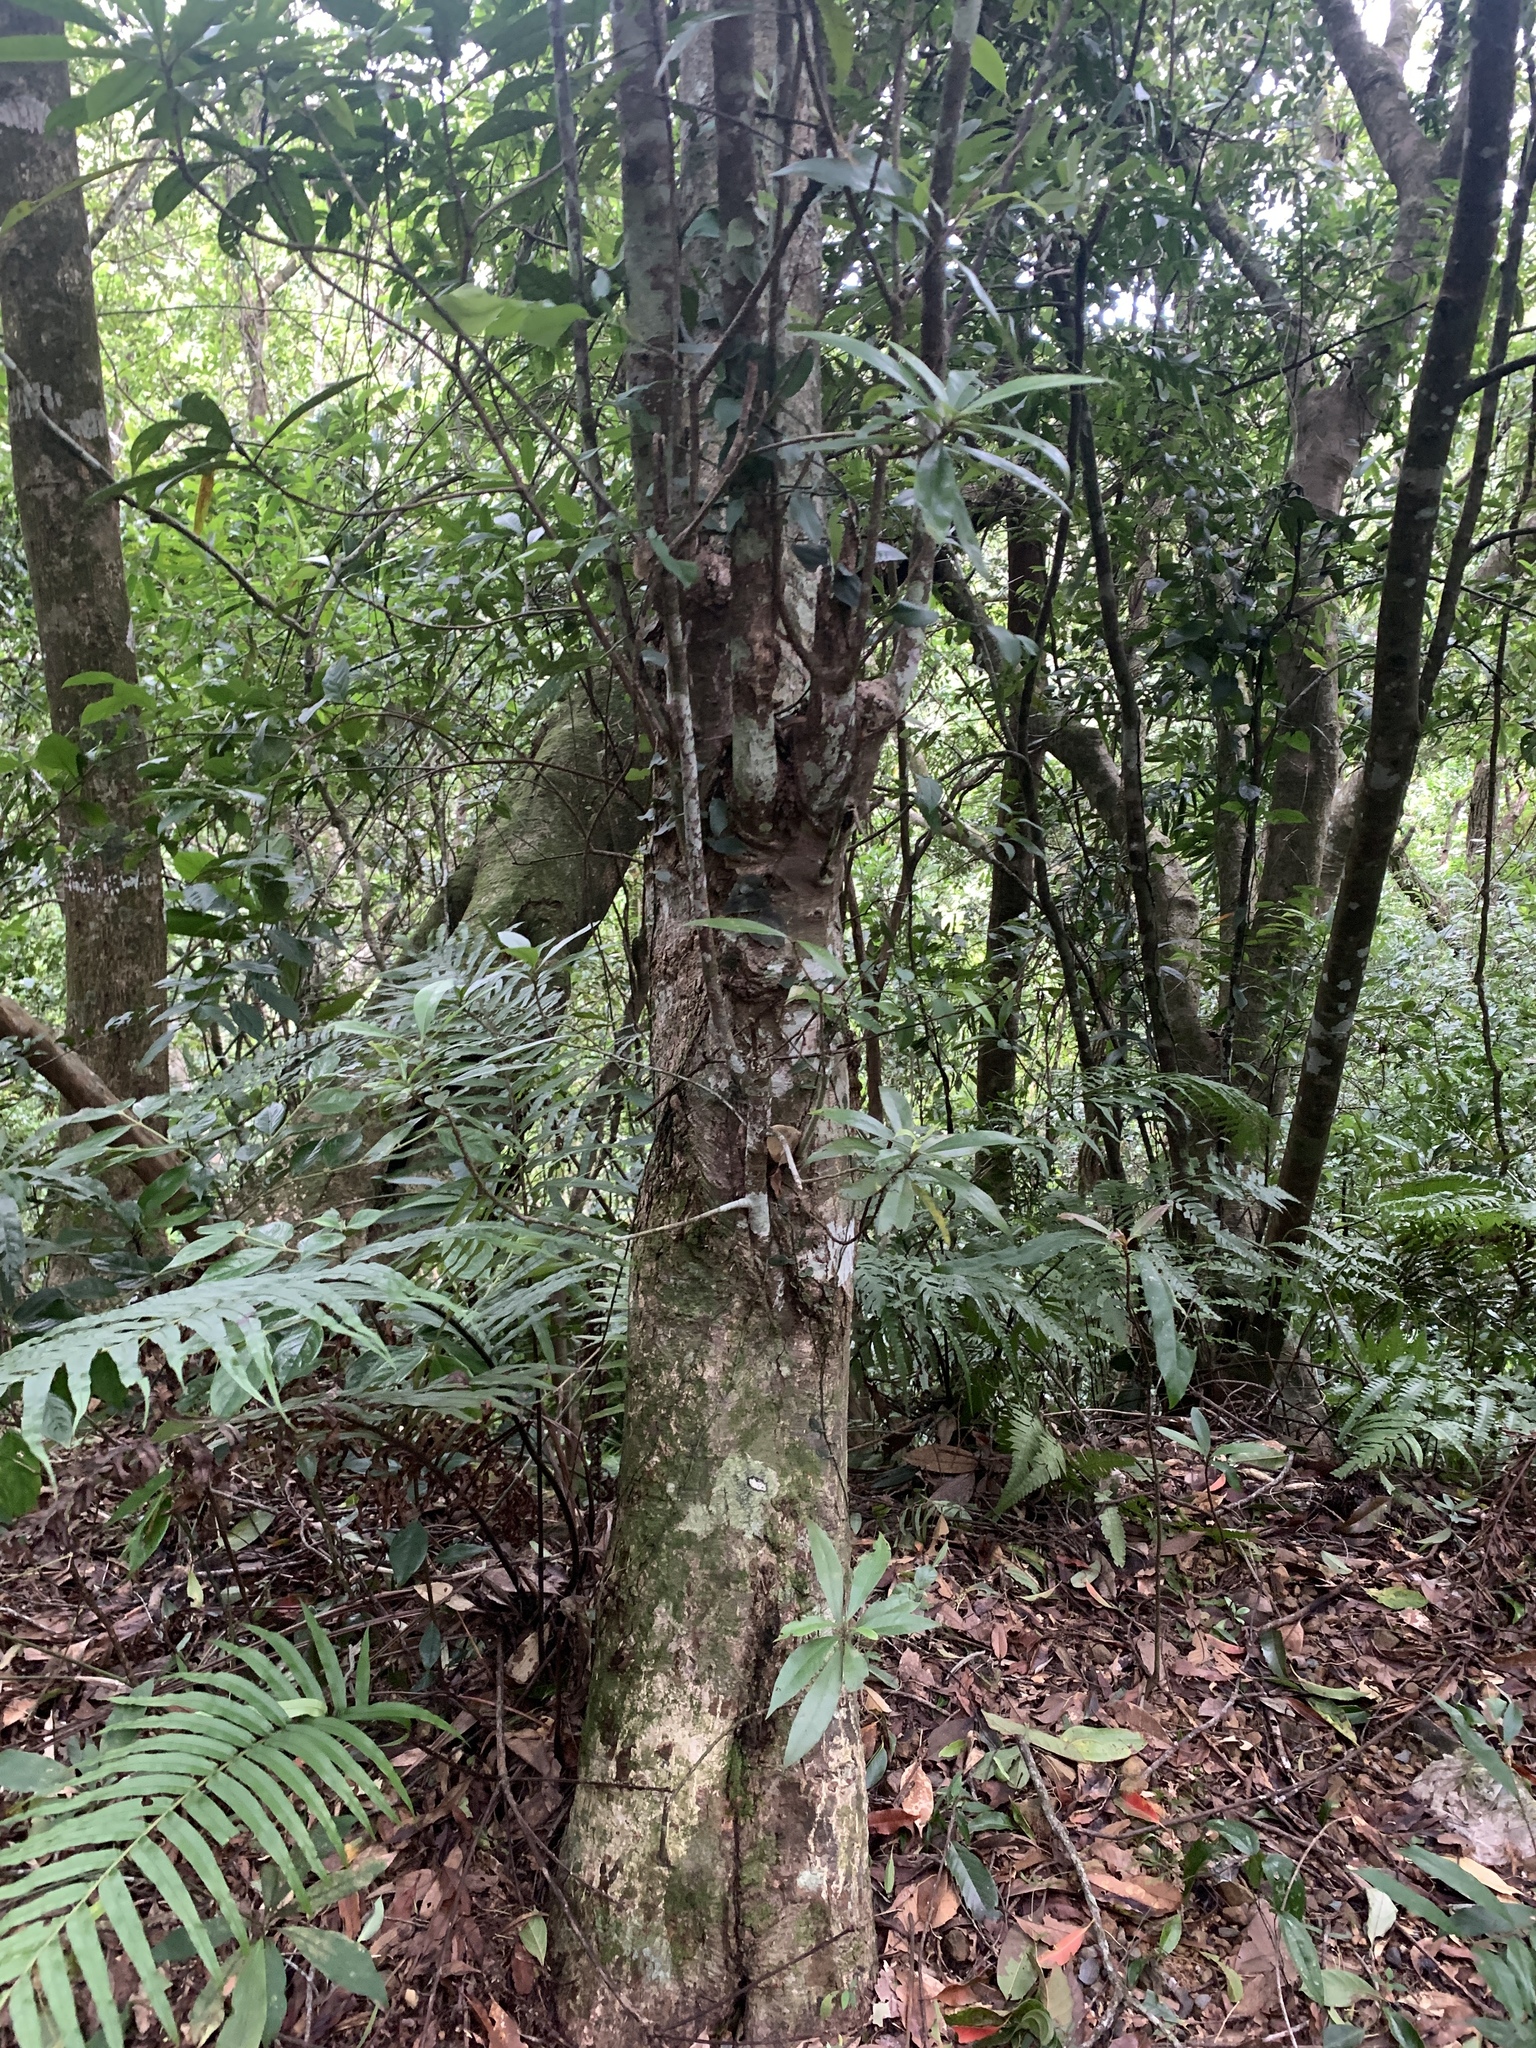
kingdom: Plantae
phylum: Tracheophyta
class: Magnoliopsida
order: Ericales
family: Theaceae
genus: Schima
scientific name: Schima superba
